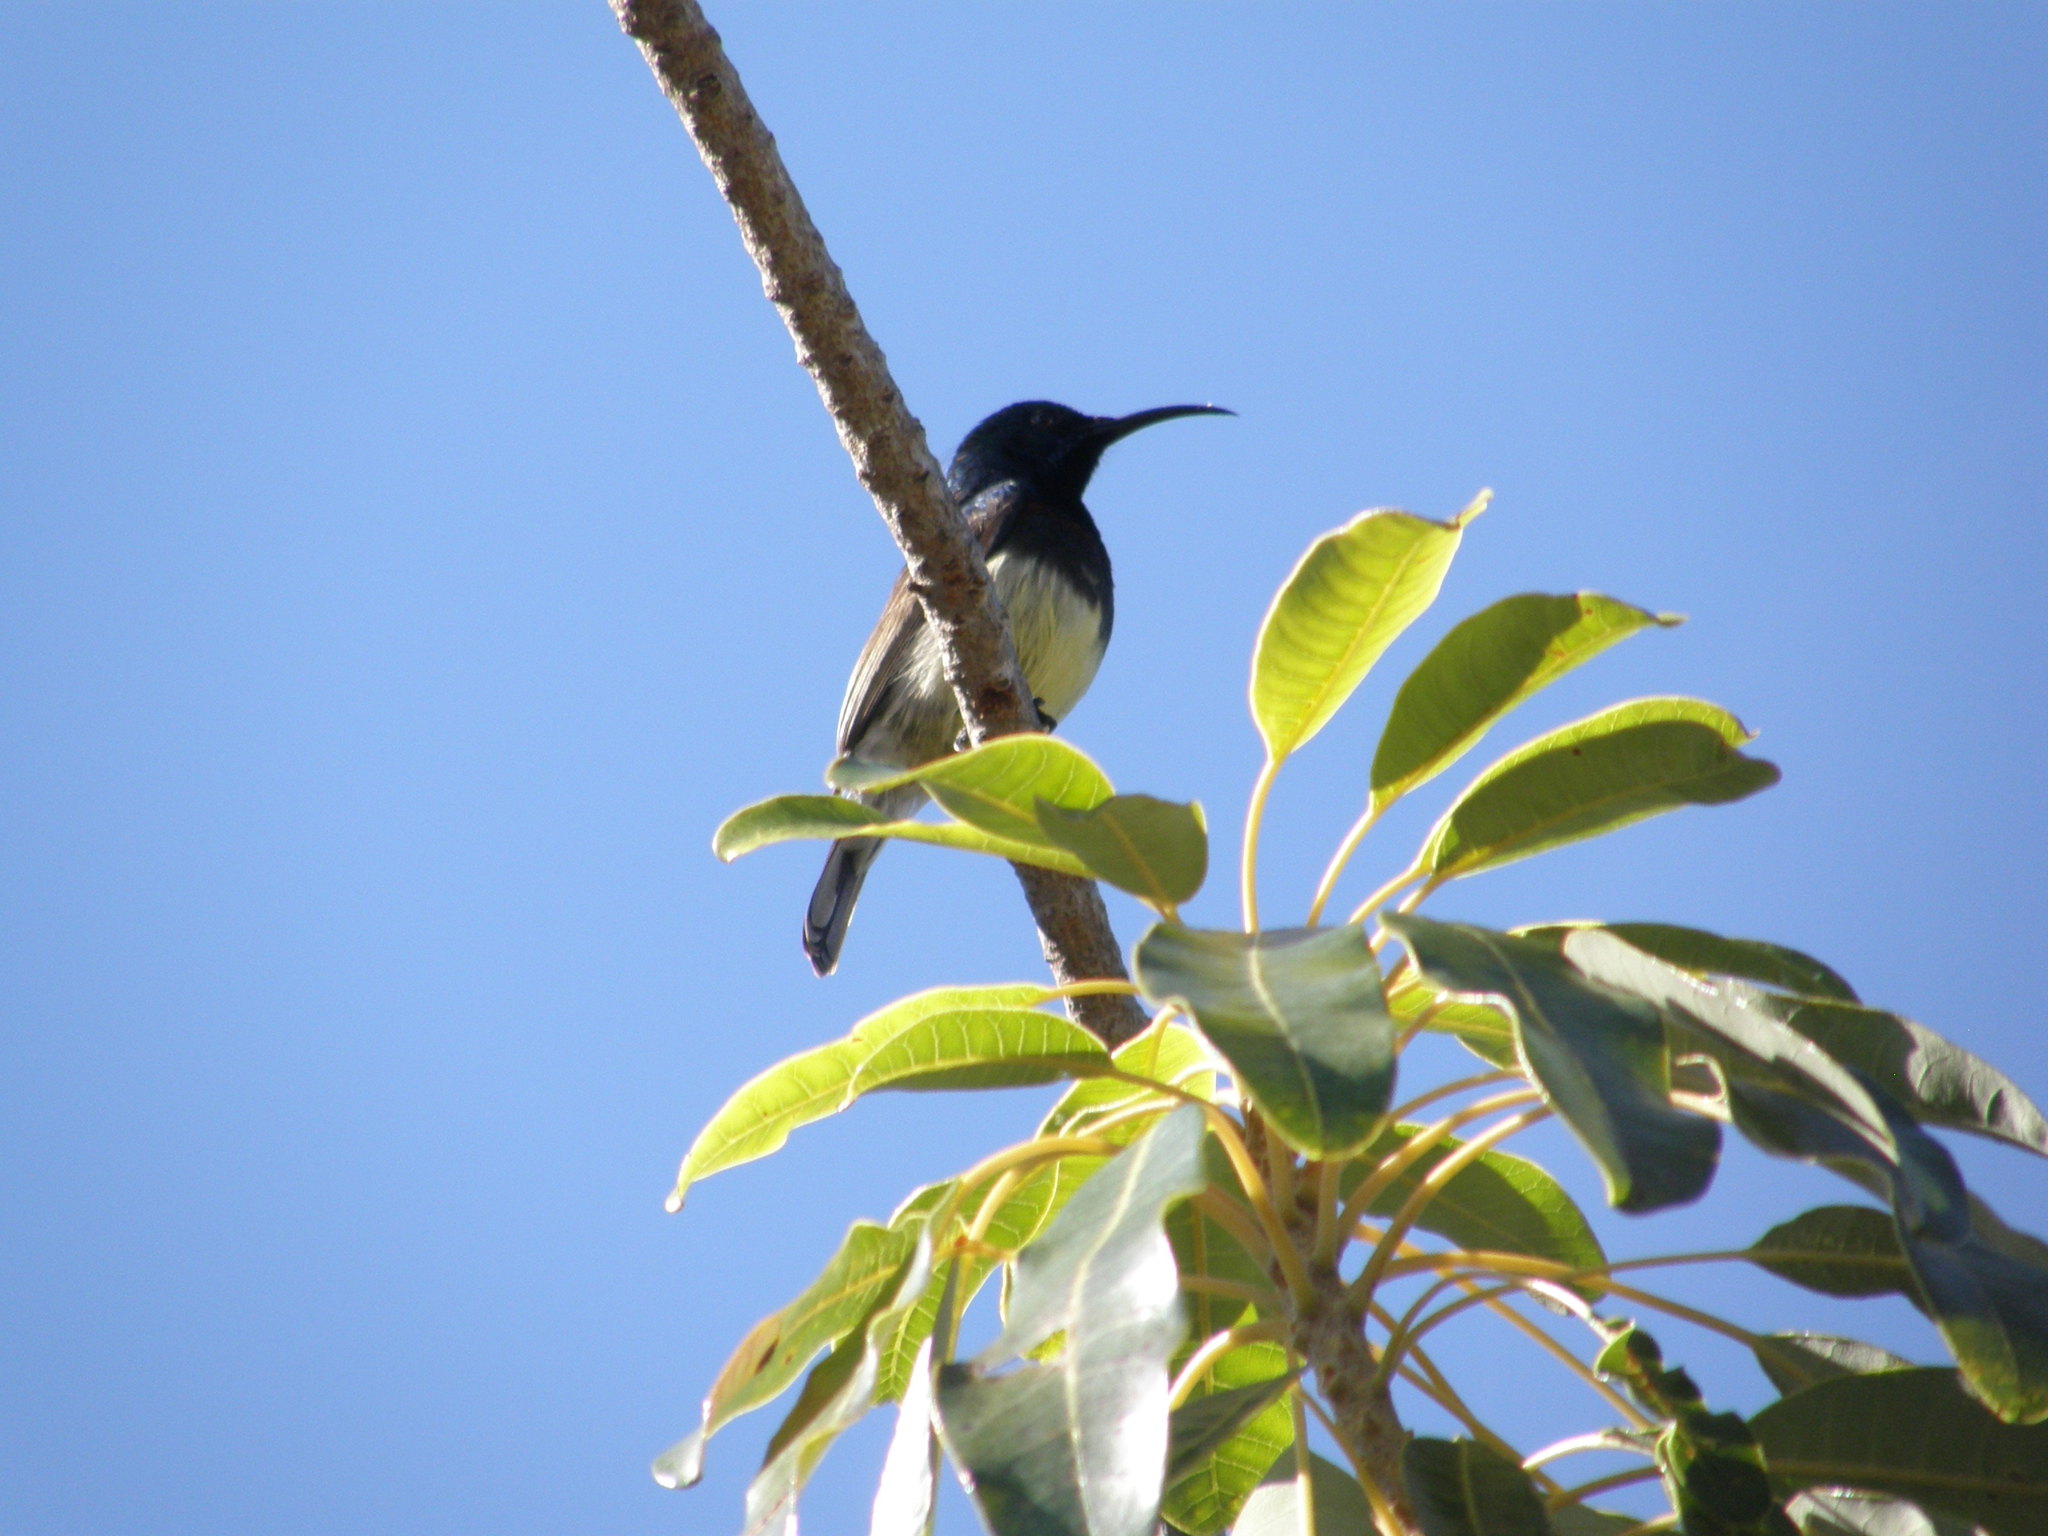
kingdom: Animalia
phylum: Chordata
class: Aves
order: Passeriformes
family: Nectariniidae
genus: Cinnyris
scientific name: Cinnyris sovimanga
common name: Souimanga sunbird
